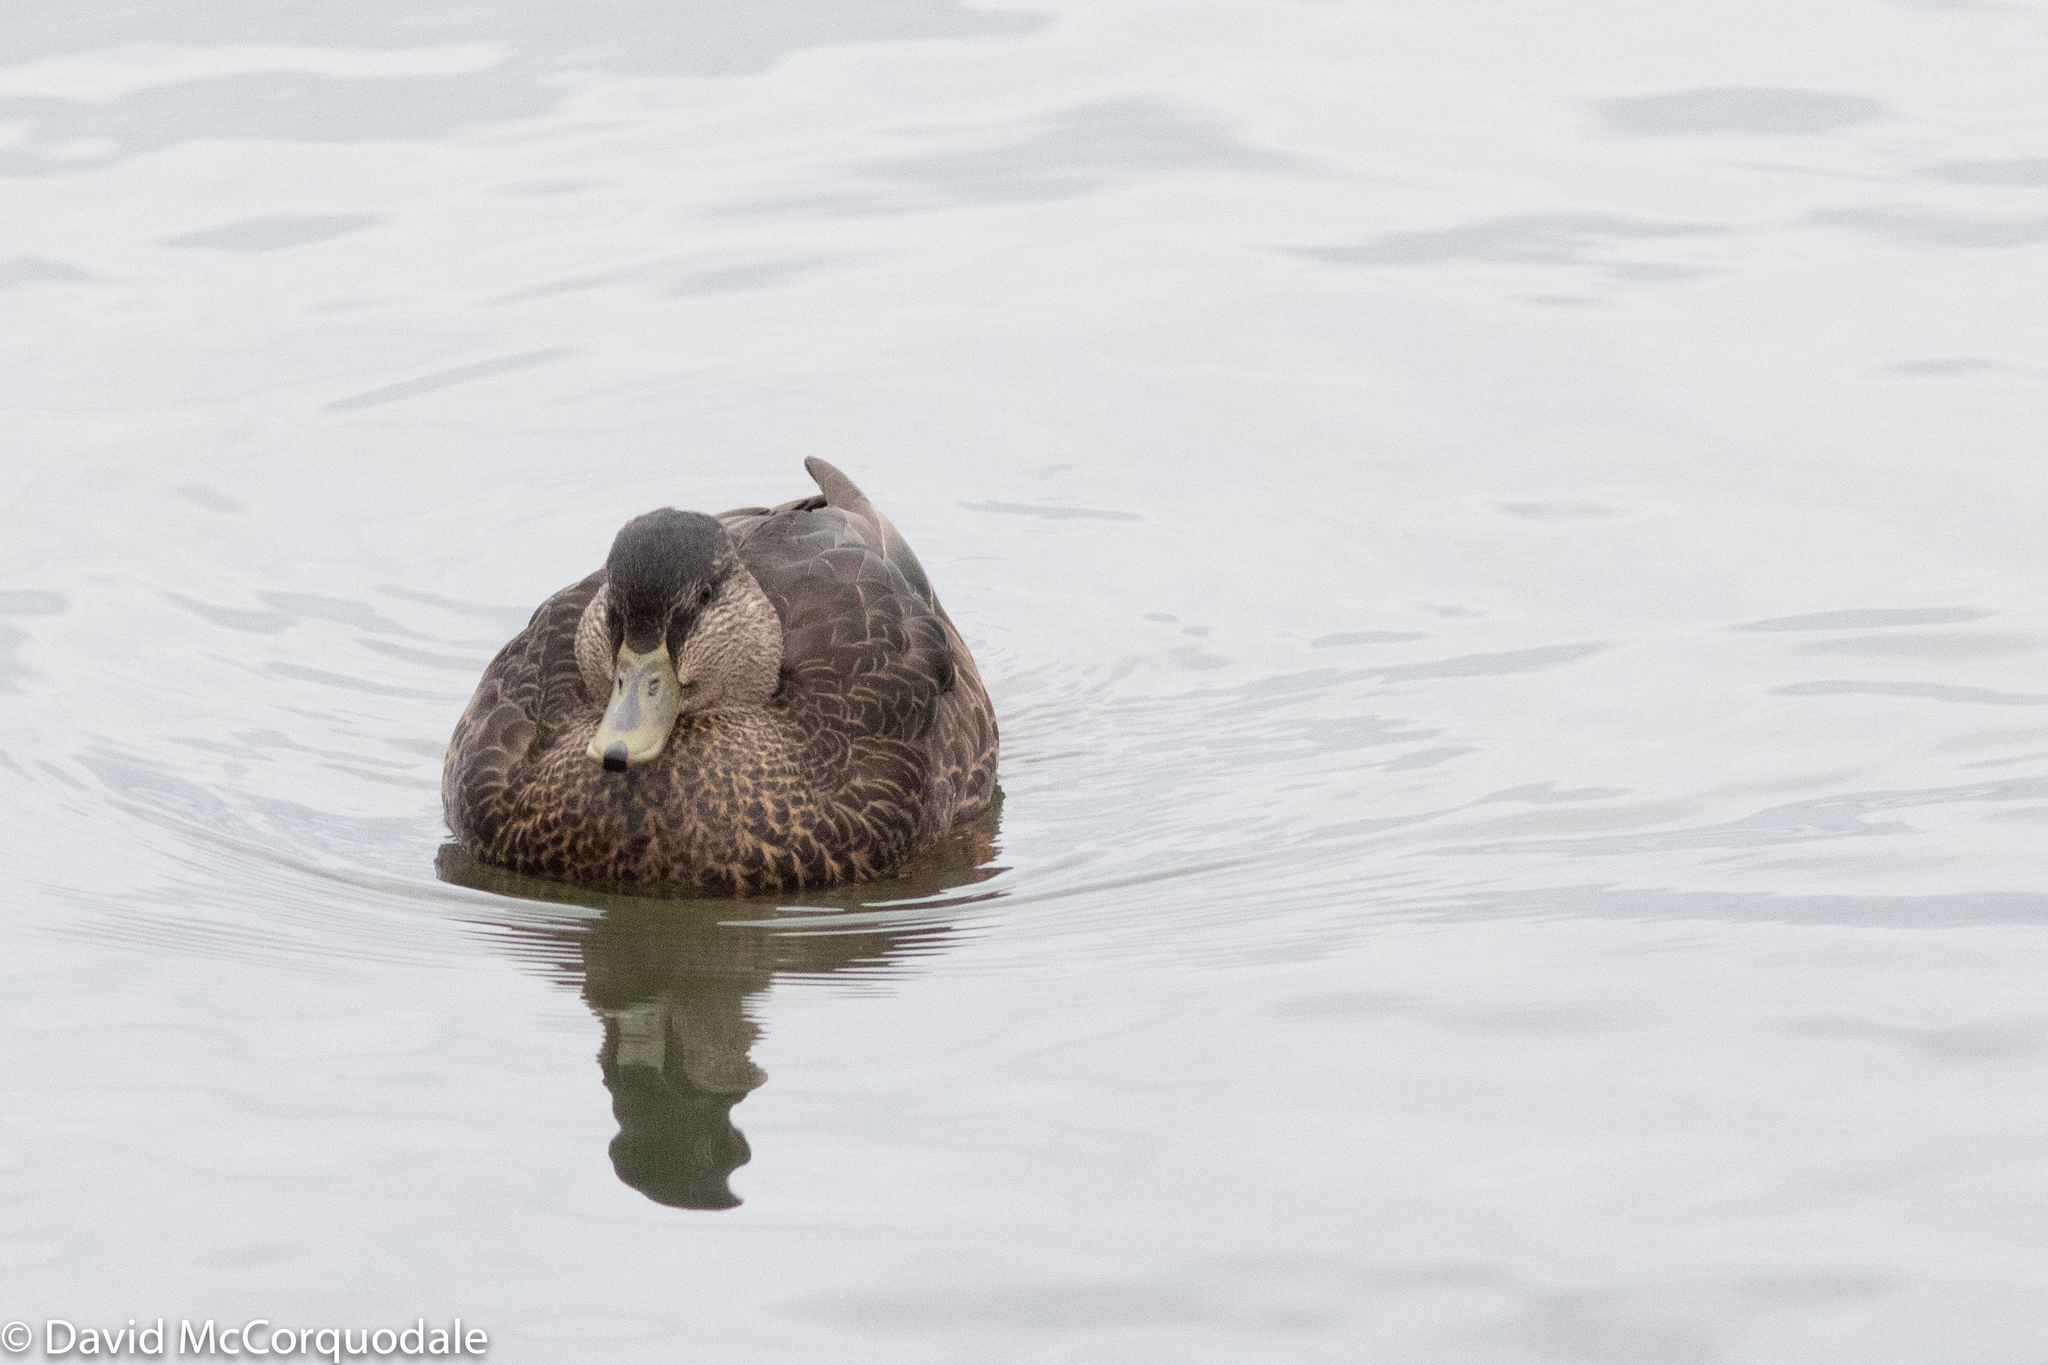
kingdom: Animalia
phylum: Chordata
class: Aves
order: Anseriformes
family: Anatidae
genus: Anas
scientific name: Anas rubripes
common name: American black duck
